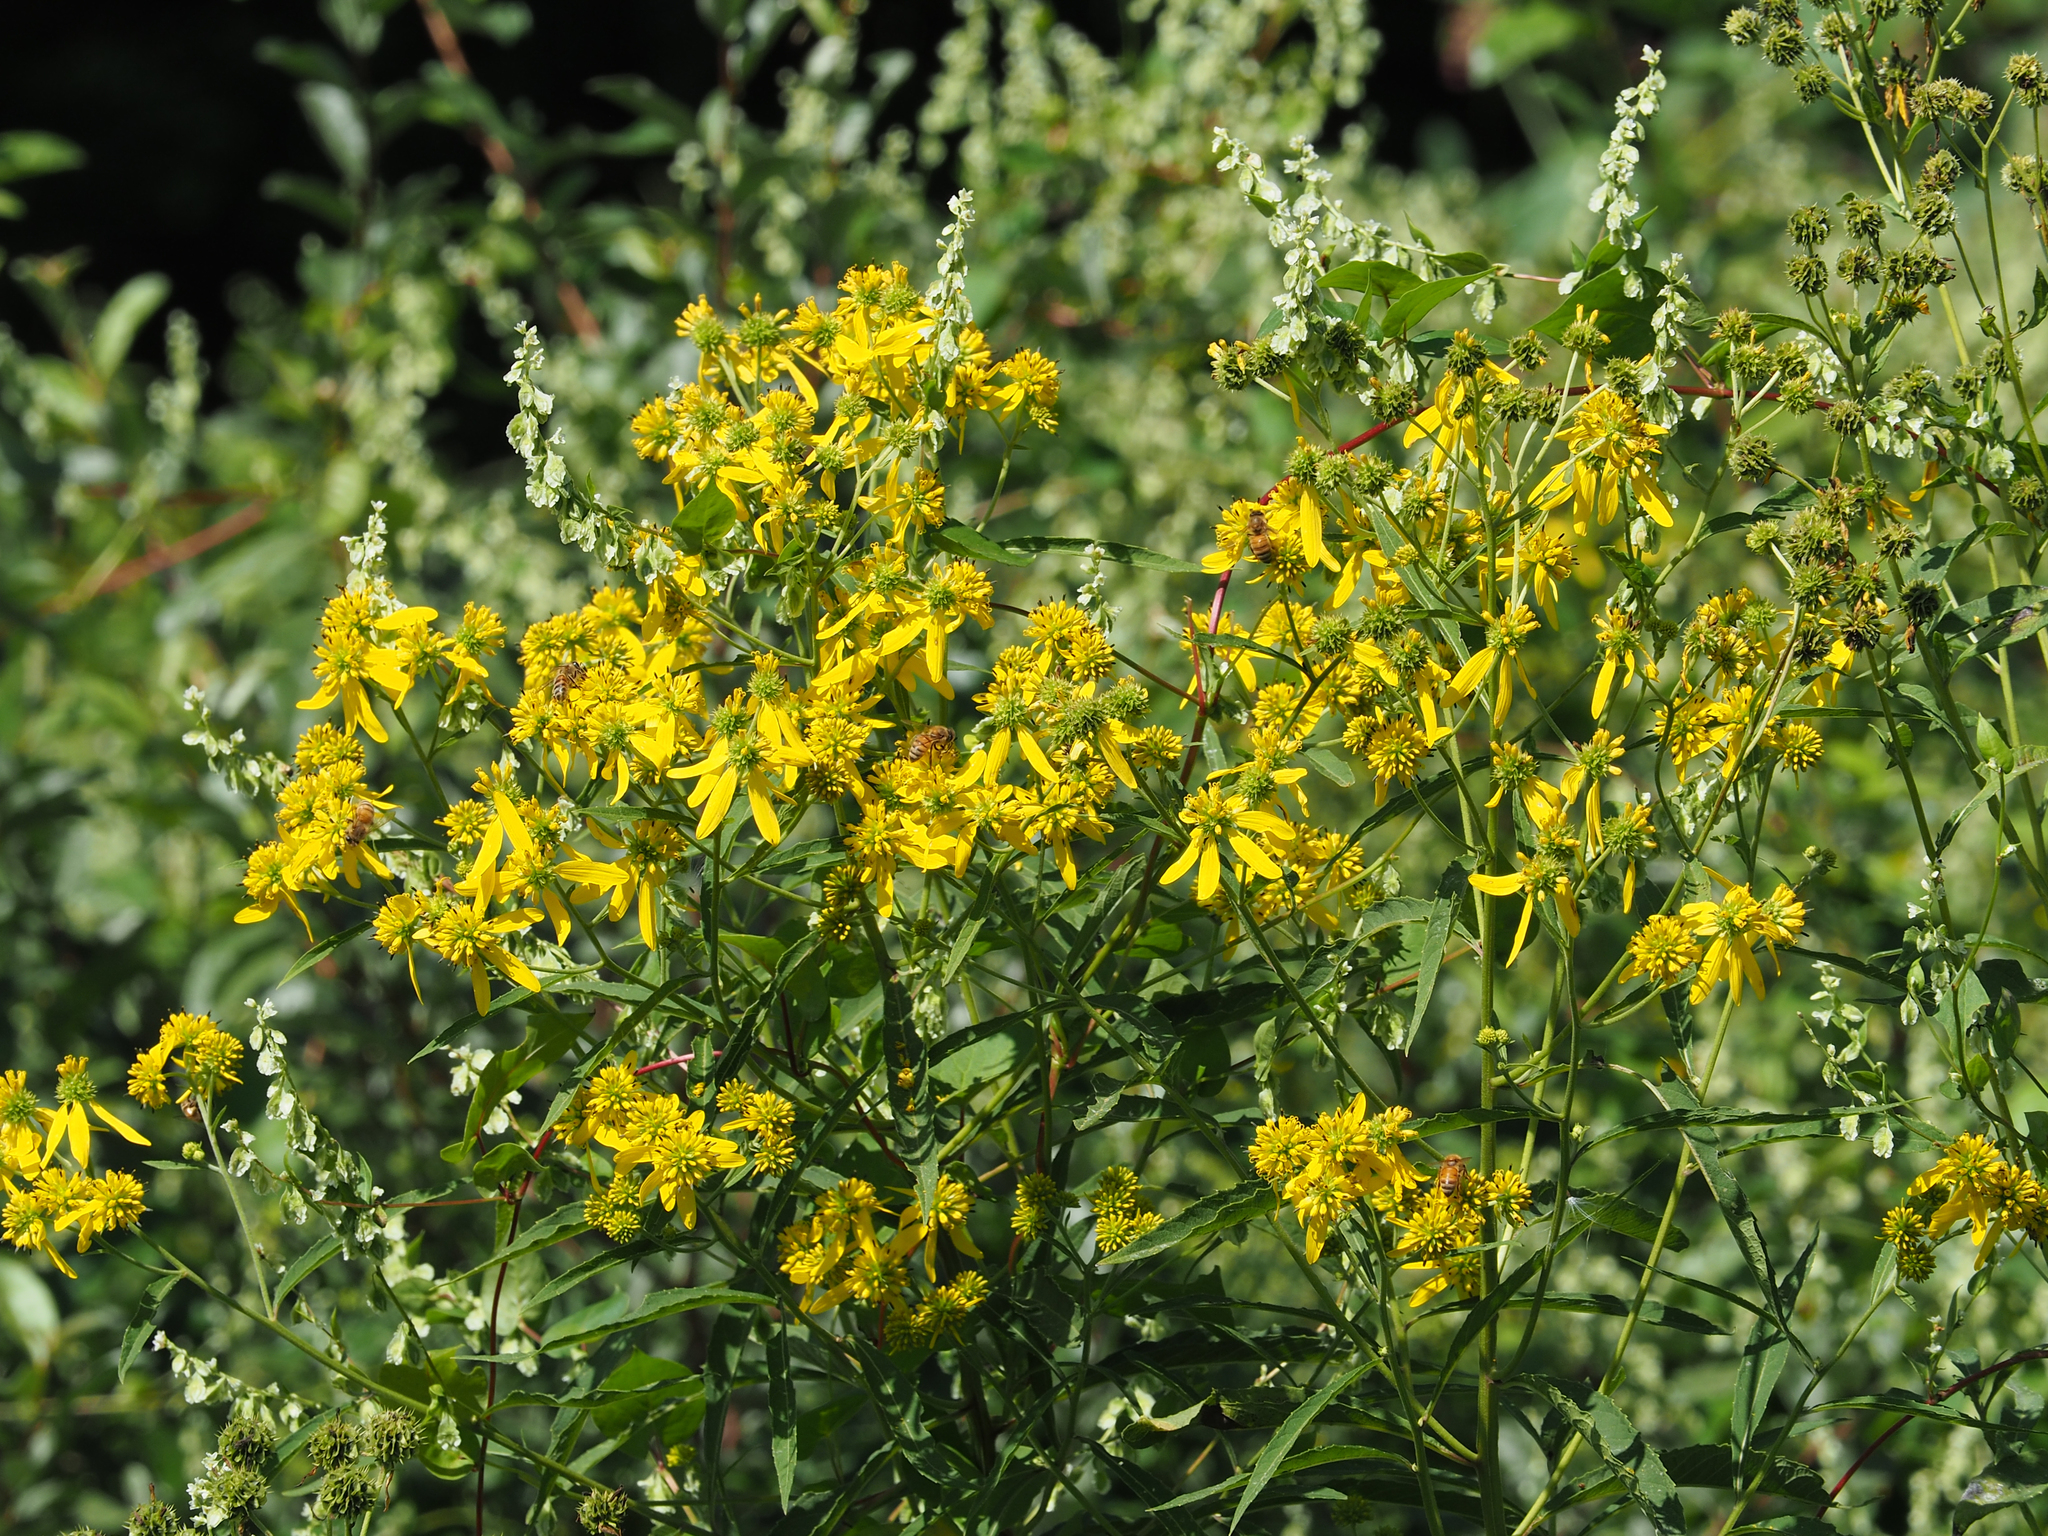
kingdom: Plantae
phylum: Tracheophyta
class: Magnoliopsida
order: Asterales
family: Asteraceae
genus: Verbesina
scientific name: Verbesina alternifolia
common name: Wingstem
